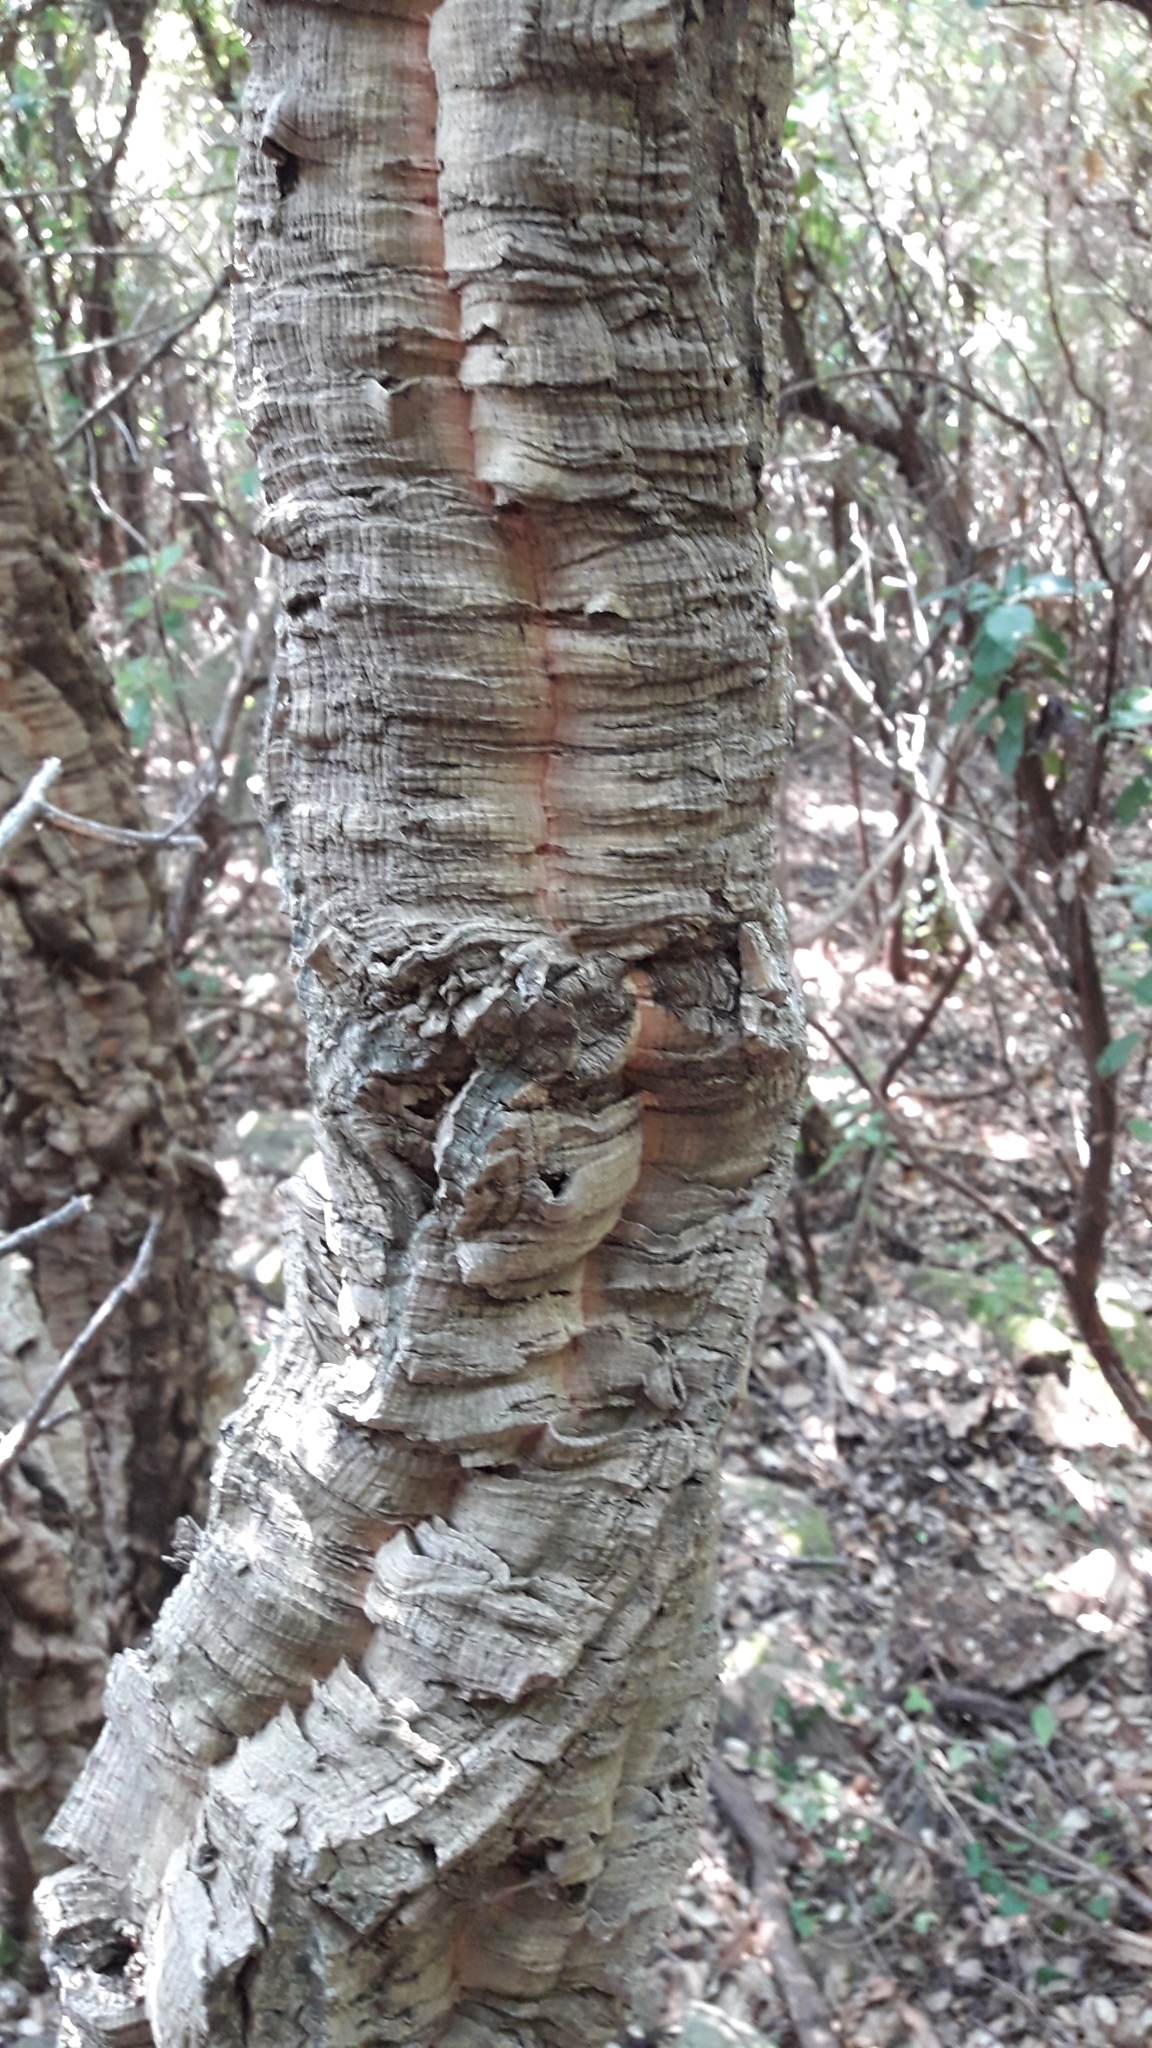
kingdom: Plantae
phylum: Tracheophyta
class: Magnoliopsida
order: Fagales
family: Fagaceae
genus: Quercus
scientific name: Quercus suber
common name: Cork oak
